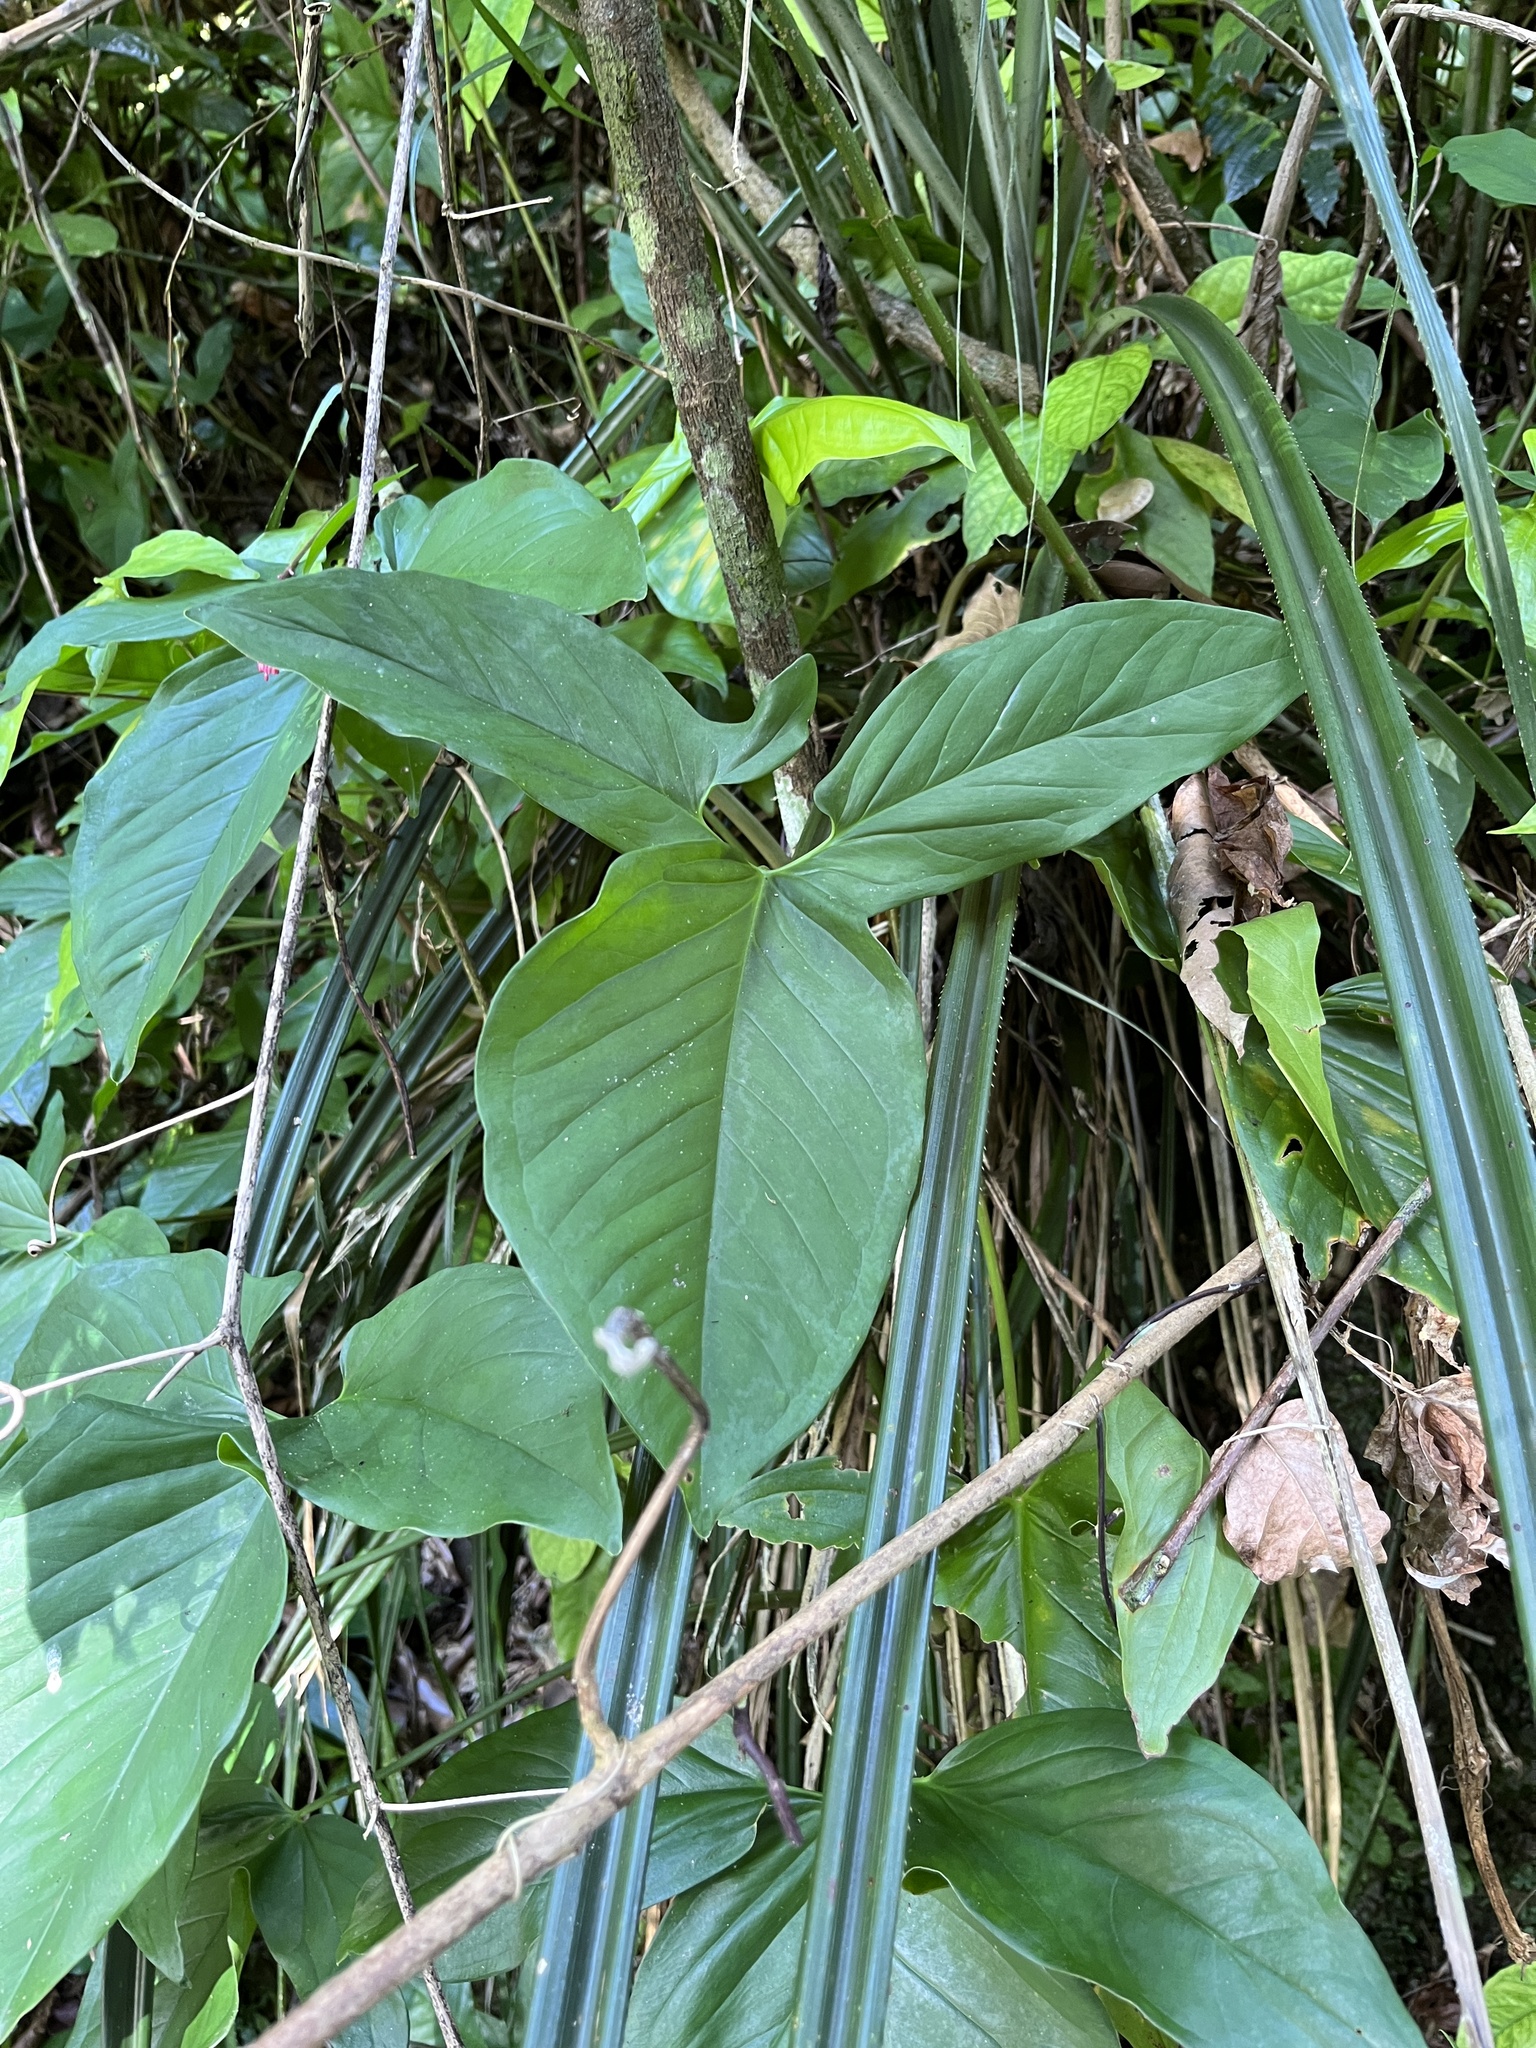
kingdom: Plantae
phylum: Tracheophyta
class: Liliopsida
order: Alismatales
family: Araceae
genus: Syngonium
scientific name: Syngonium podophyllum
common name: American evergreen
